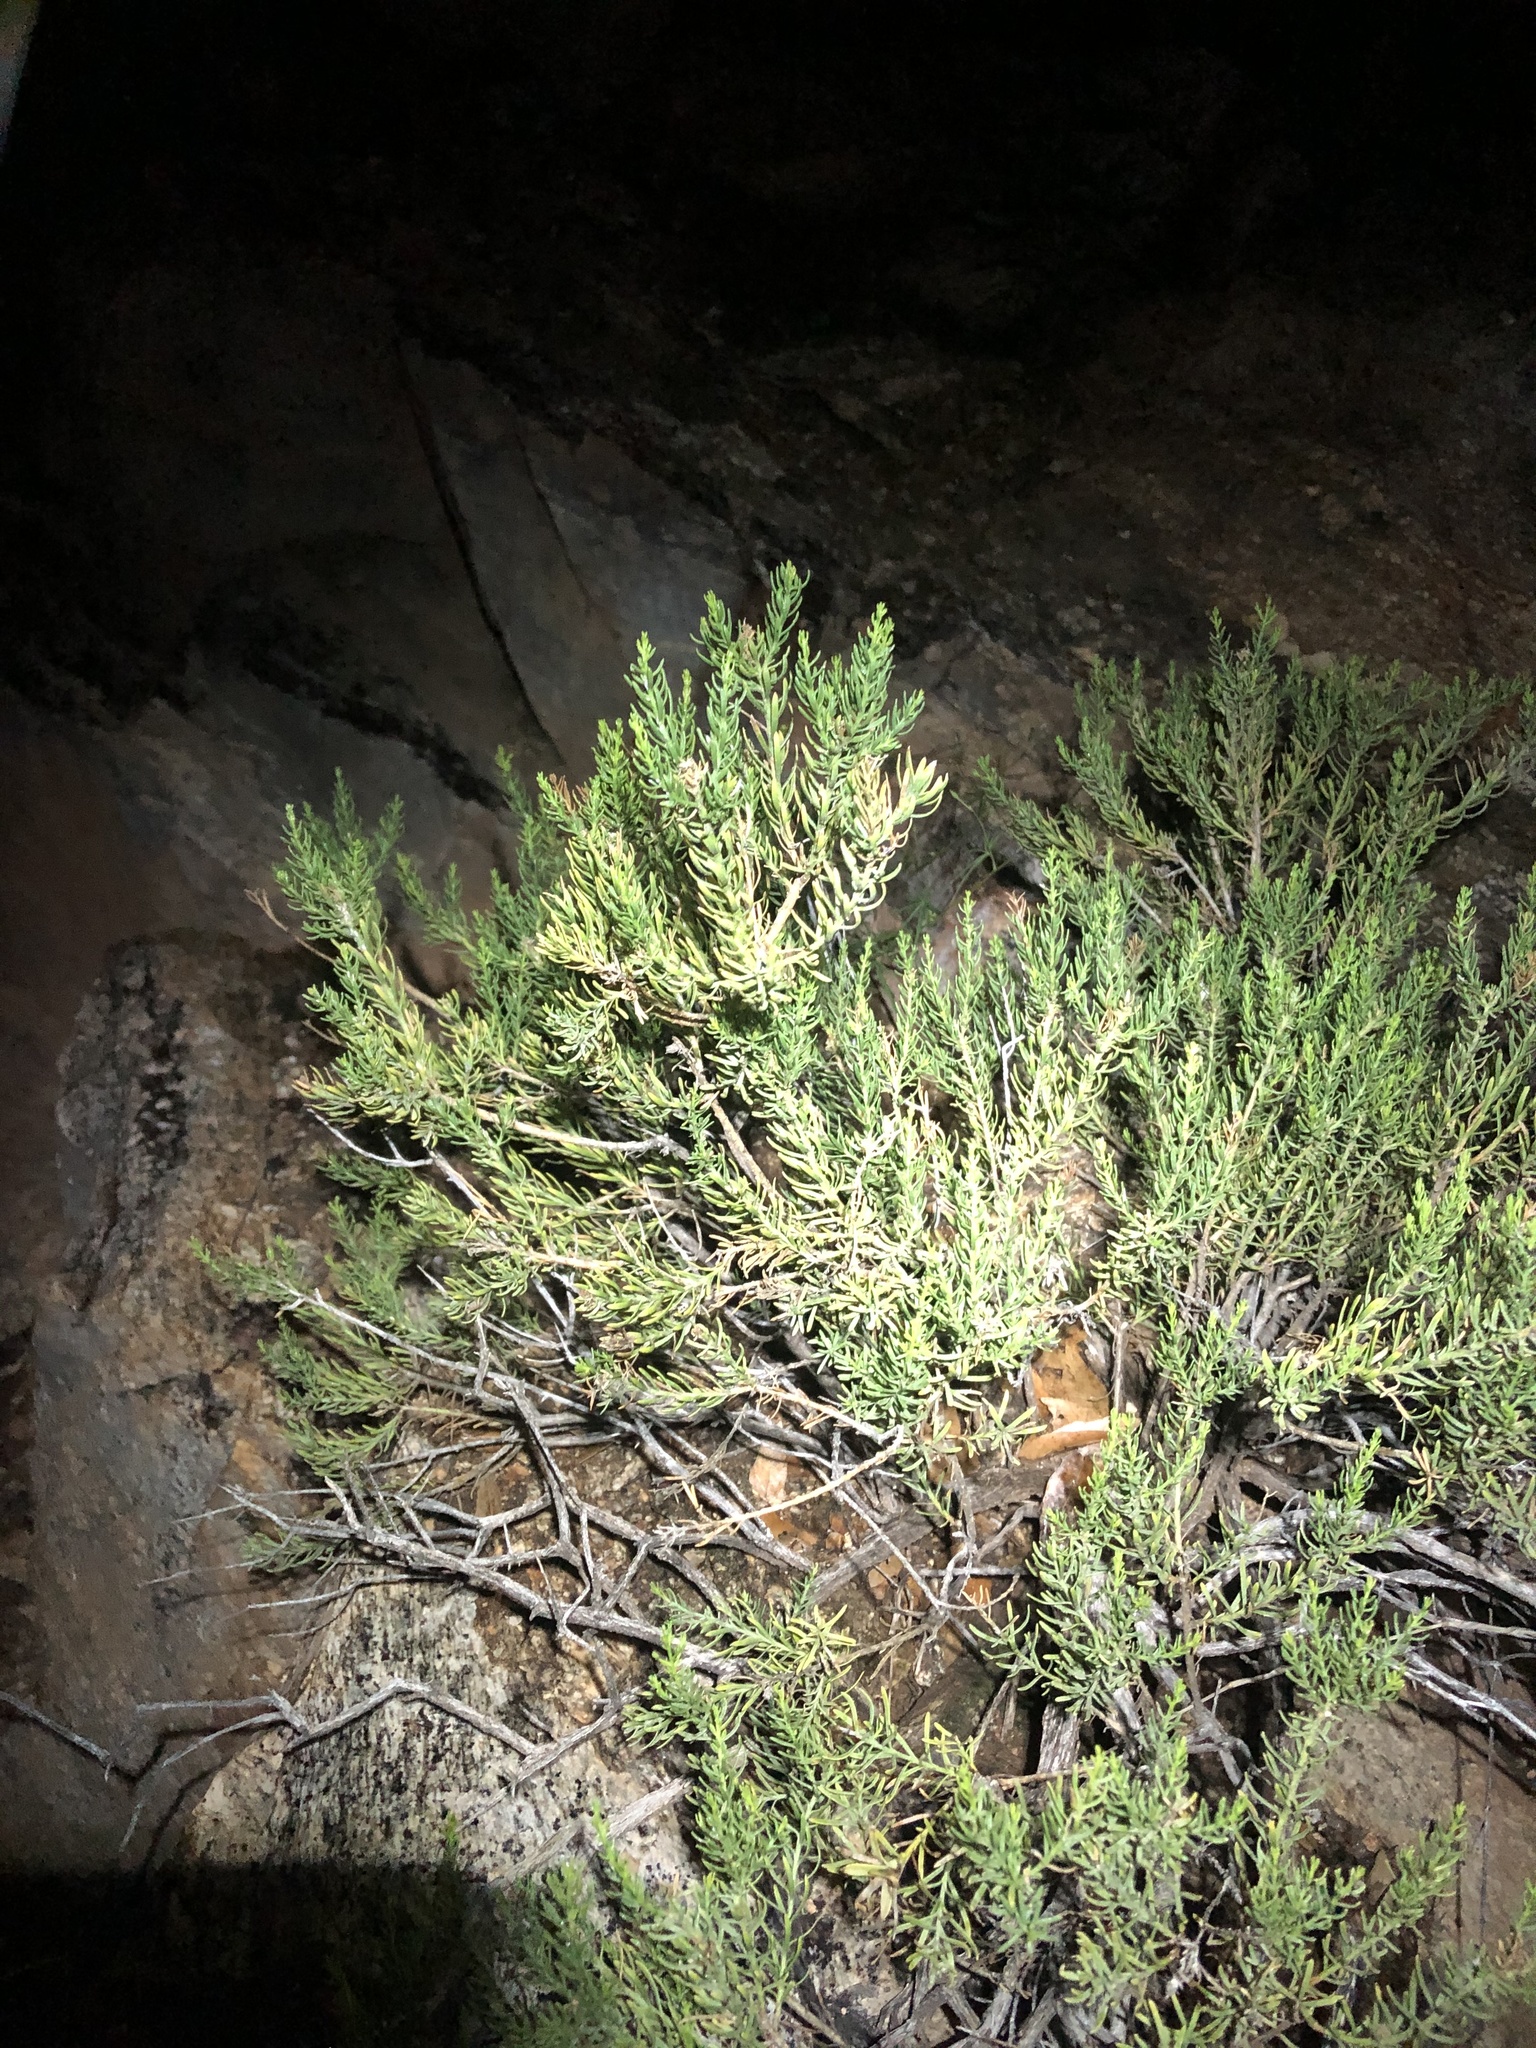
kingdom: Plantae
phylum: Tracheophyta
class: Magnoliopsida
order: Asterales
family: Asteraceae
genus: Ericameria
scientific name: Ericameria laricifolia
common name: Turpentine-bush
